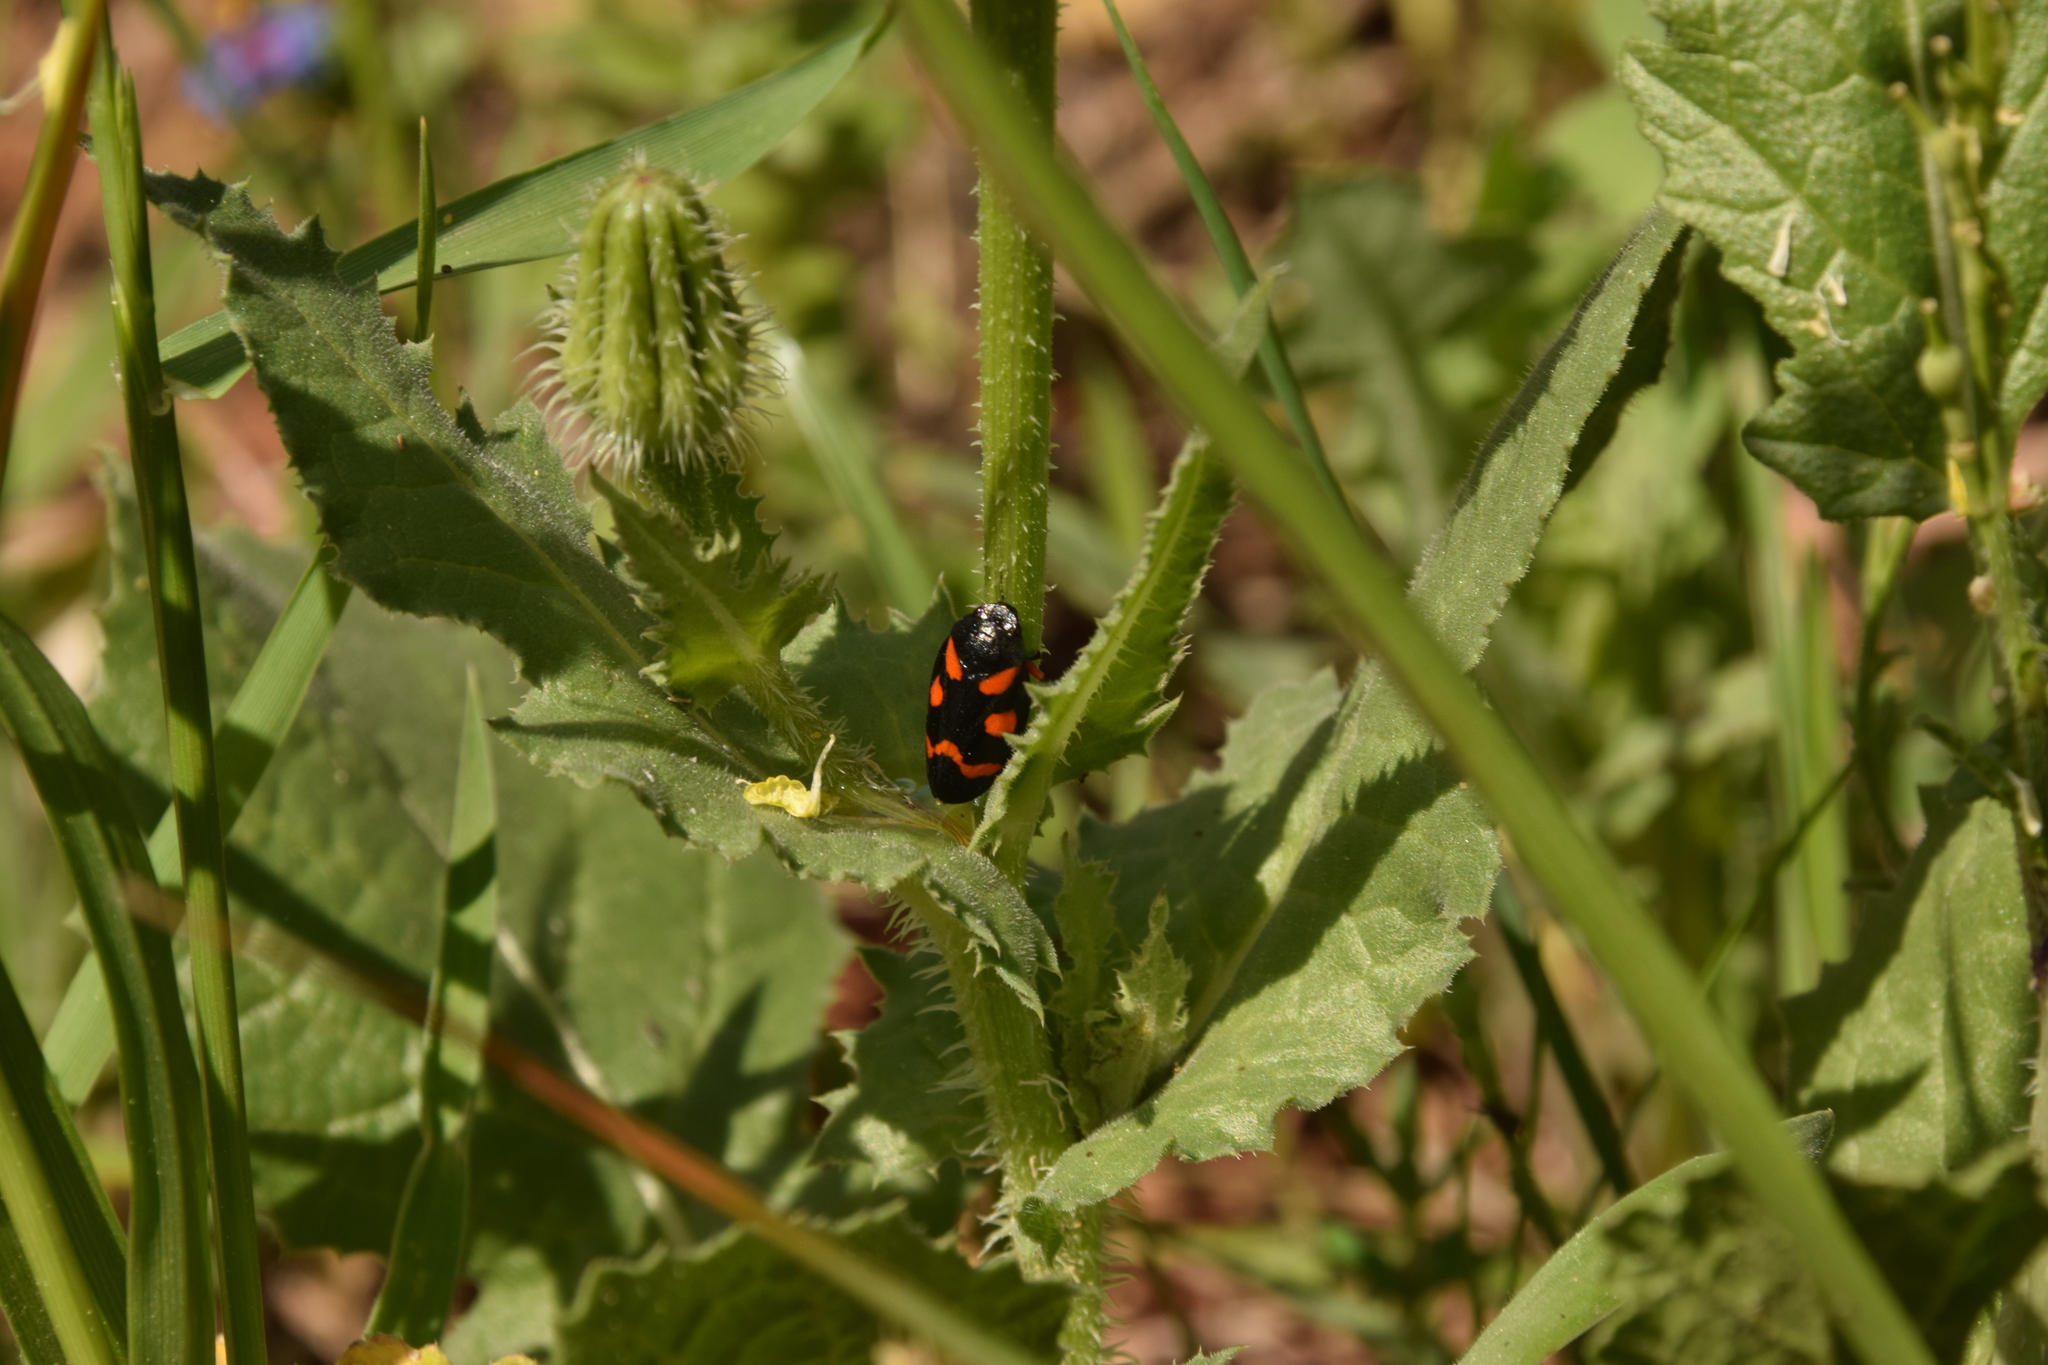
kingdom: Animalia
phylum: Arthropoda
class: Insecta
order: Hemiptera
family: Cercopidae
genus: Cercopis
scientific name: Cercopis intermedia
